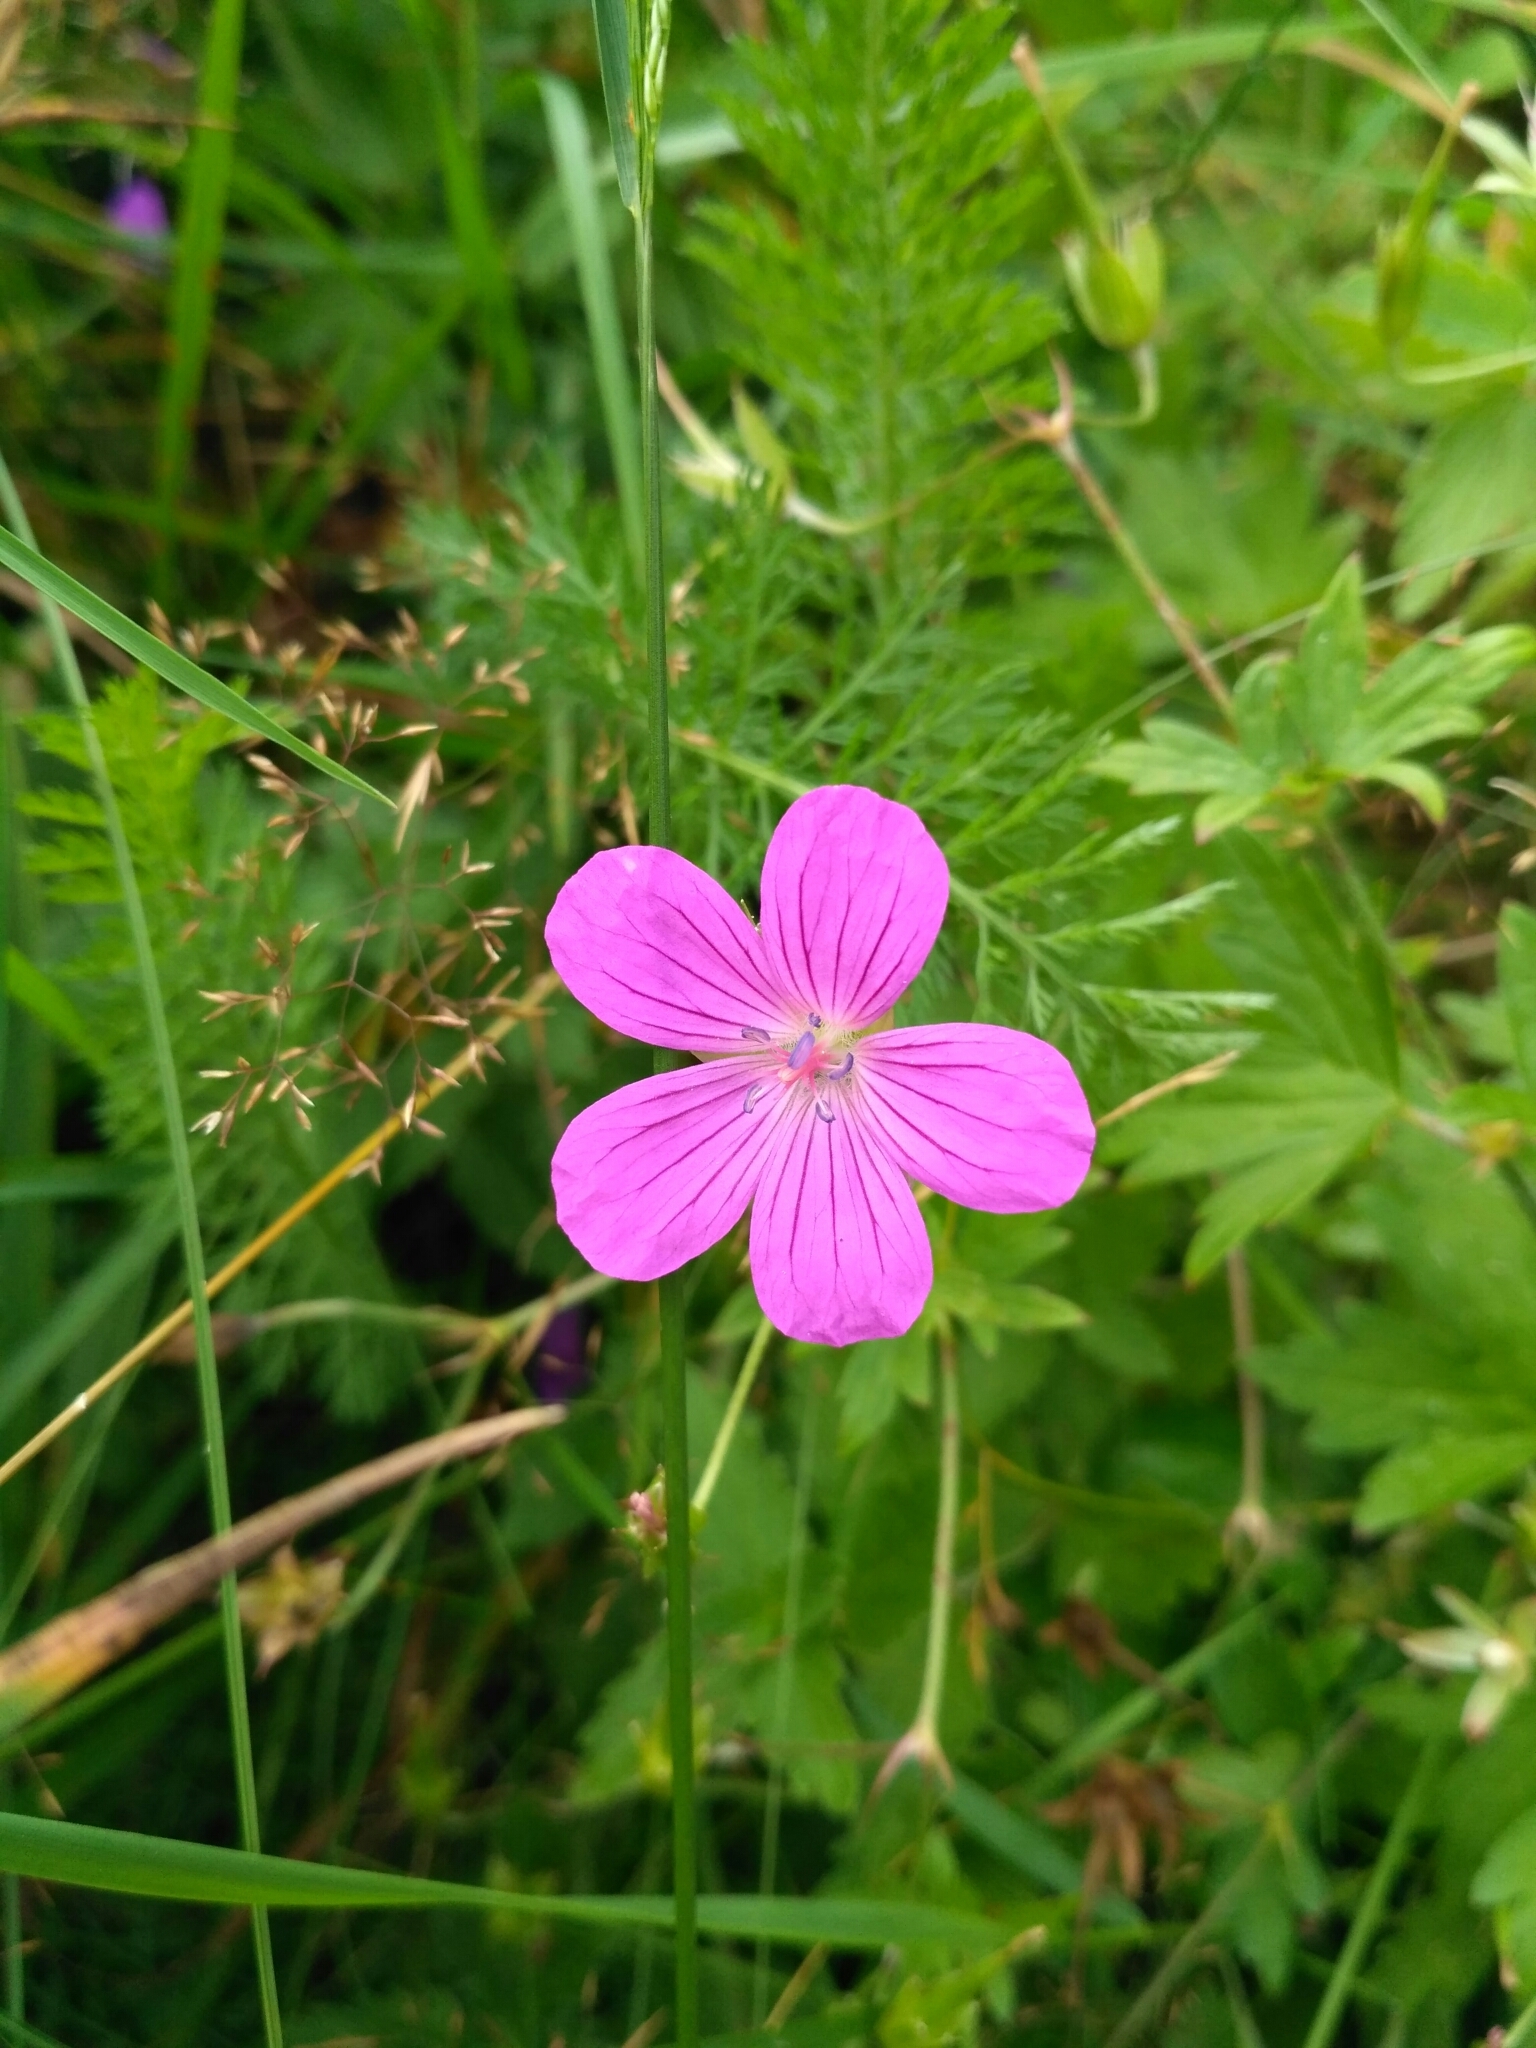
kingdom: Plantae
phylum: Tracheophyta
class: Magnoliopsida
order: Geraniales
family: Geraniaceae
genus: Geranium
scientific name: Geranium palustre
